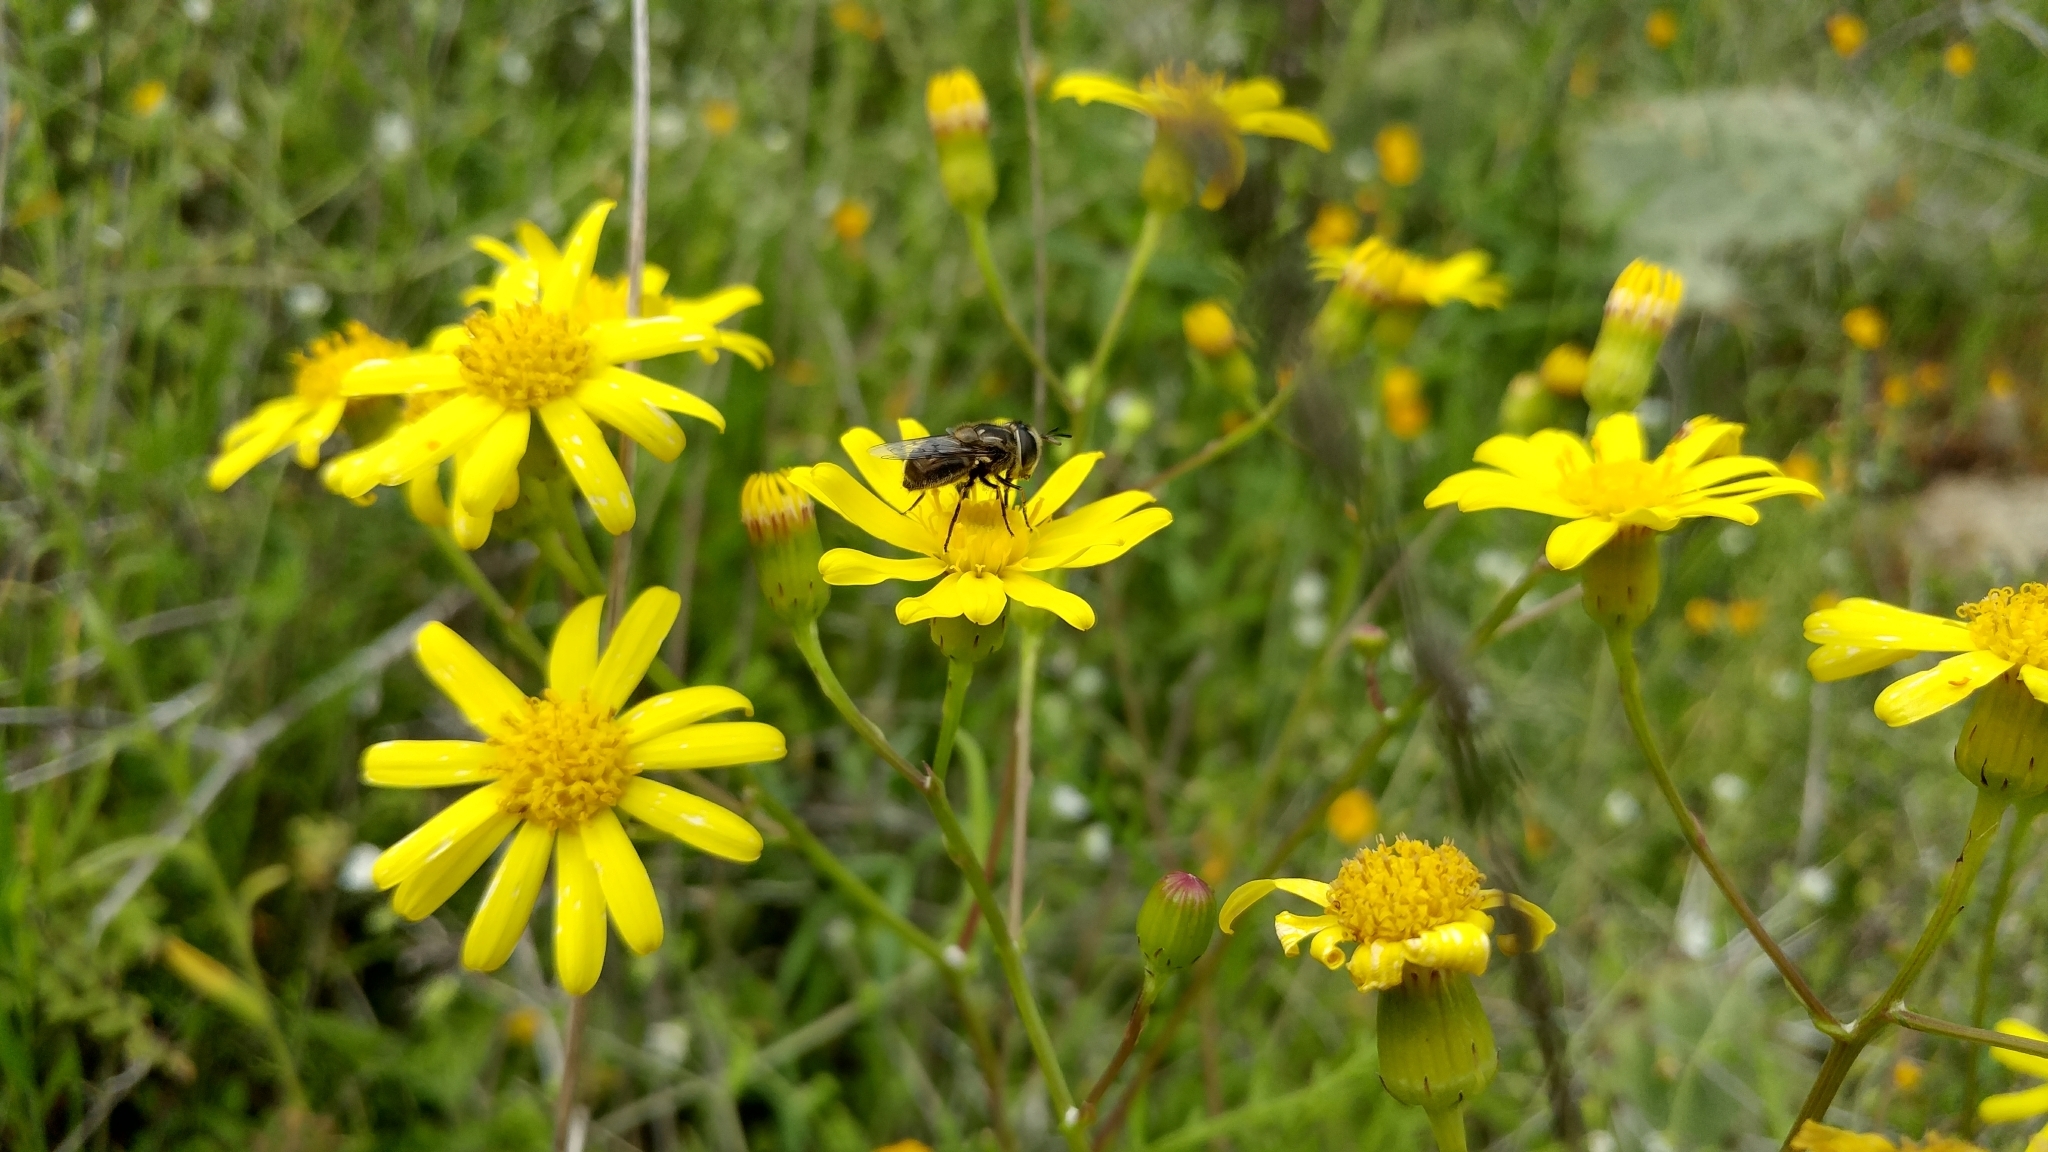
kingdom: Animalia
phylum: Arthropoda
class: Insecta
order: Diptera
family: Syrphidae
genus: Copestylum
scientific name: Copestylum lentum
